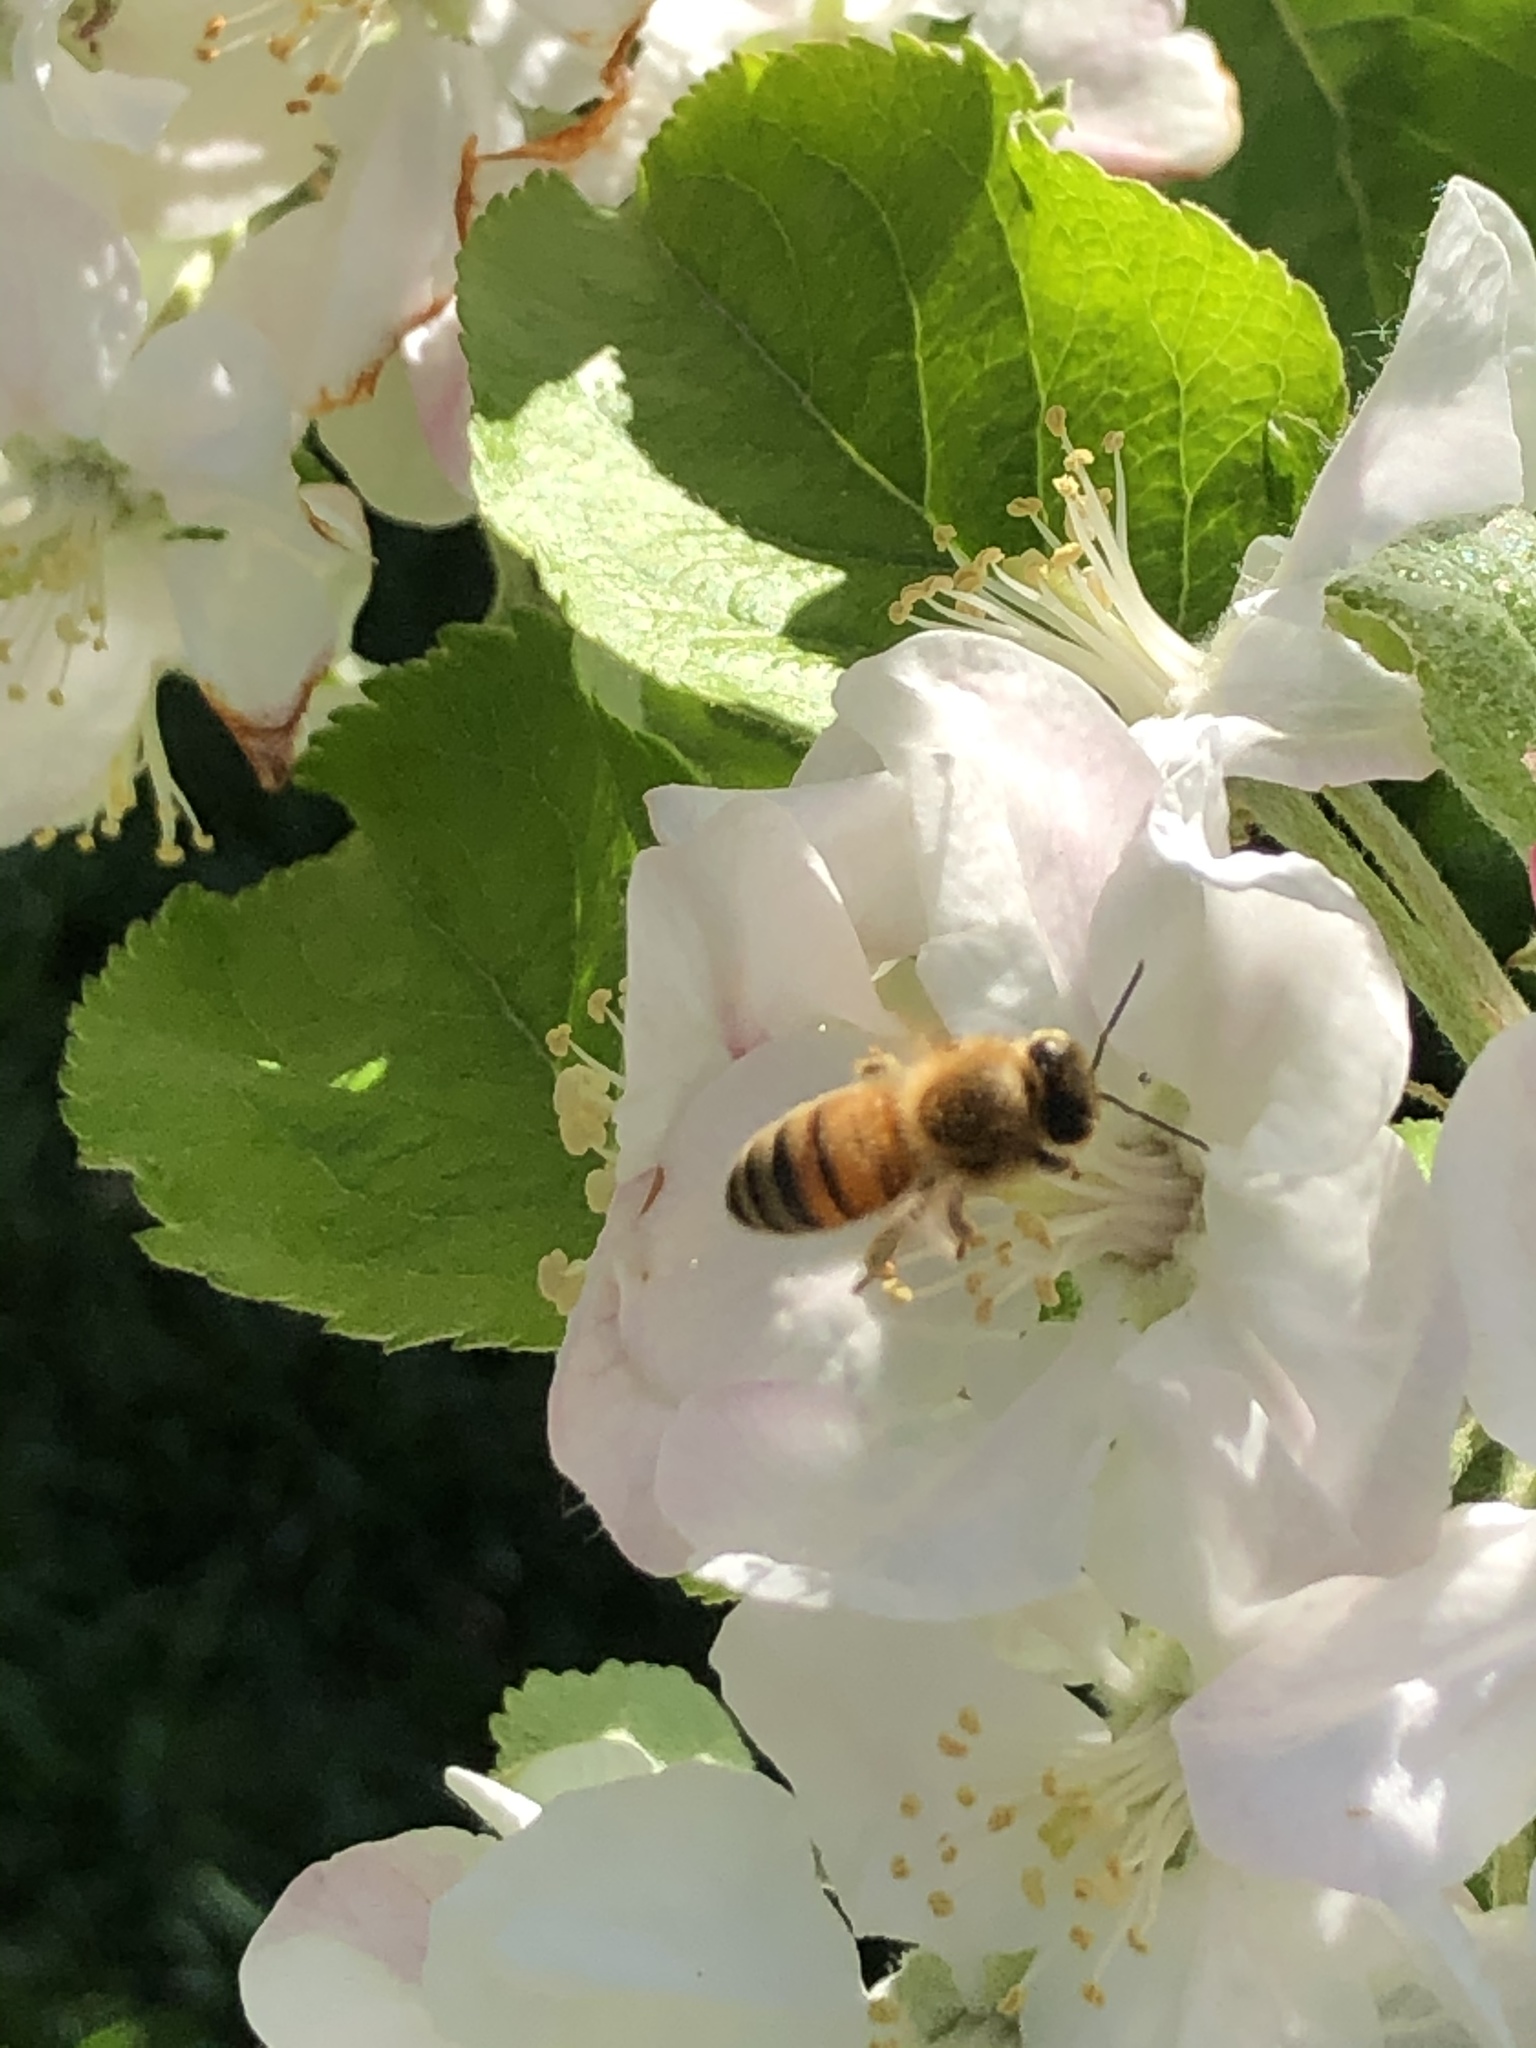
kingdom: Animalia
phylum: Arthropoda
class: Insecta
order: Hymenoptera
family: Apidae
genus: Apis
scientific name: Apis mellifera
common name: Honey bee
